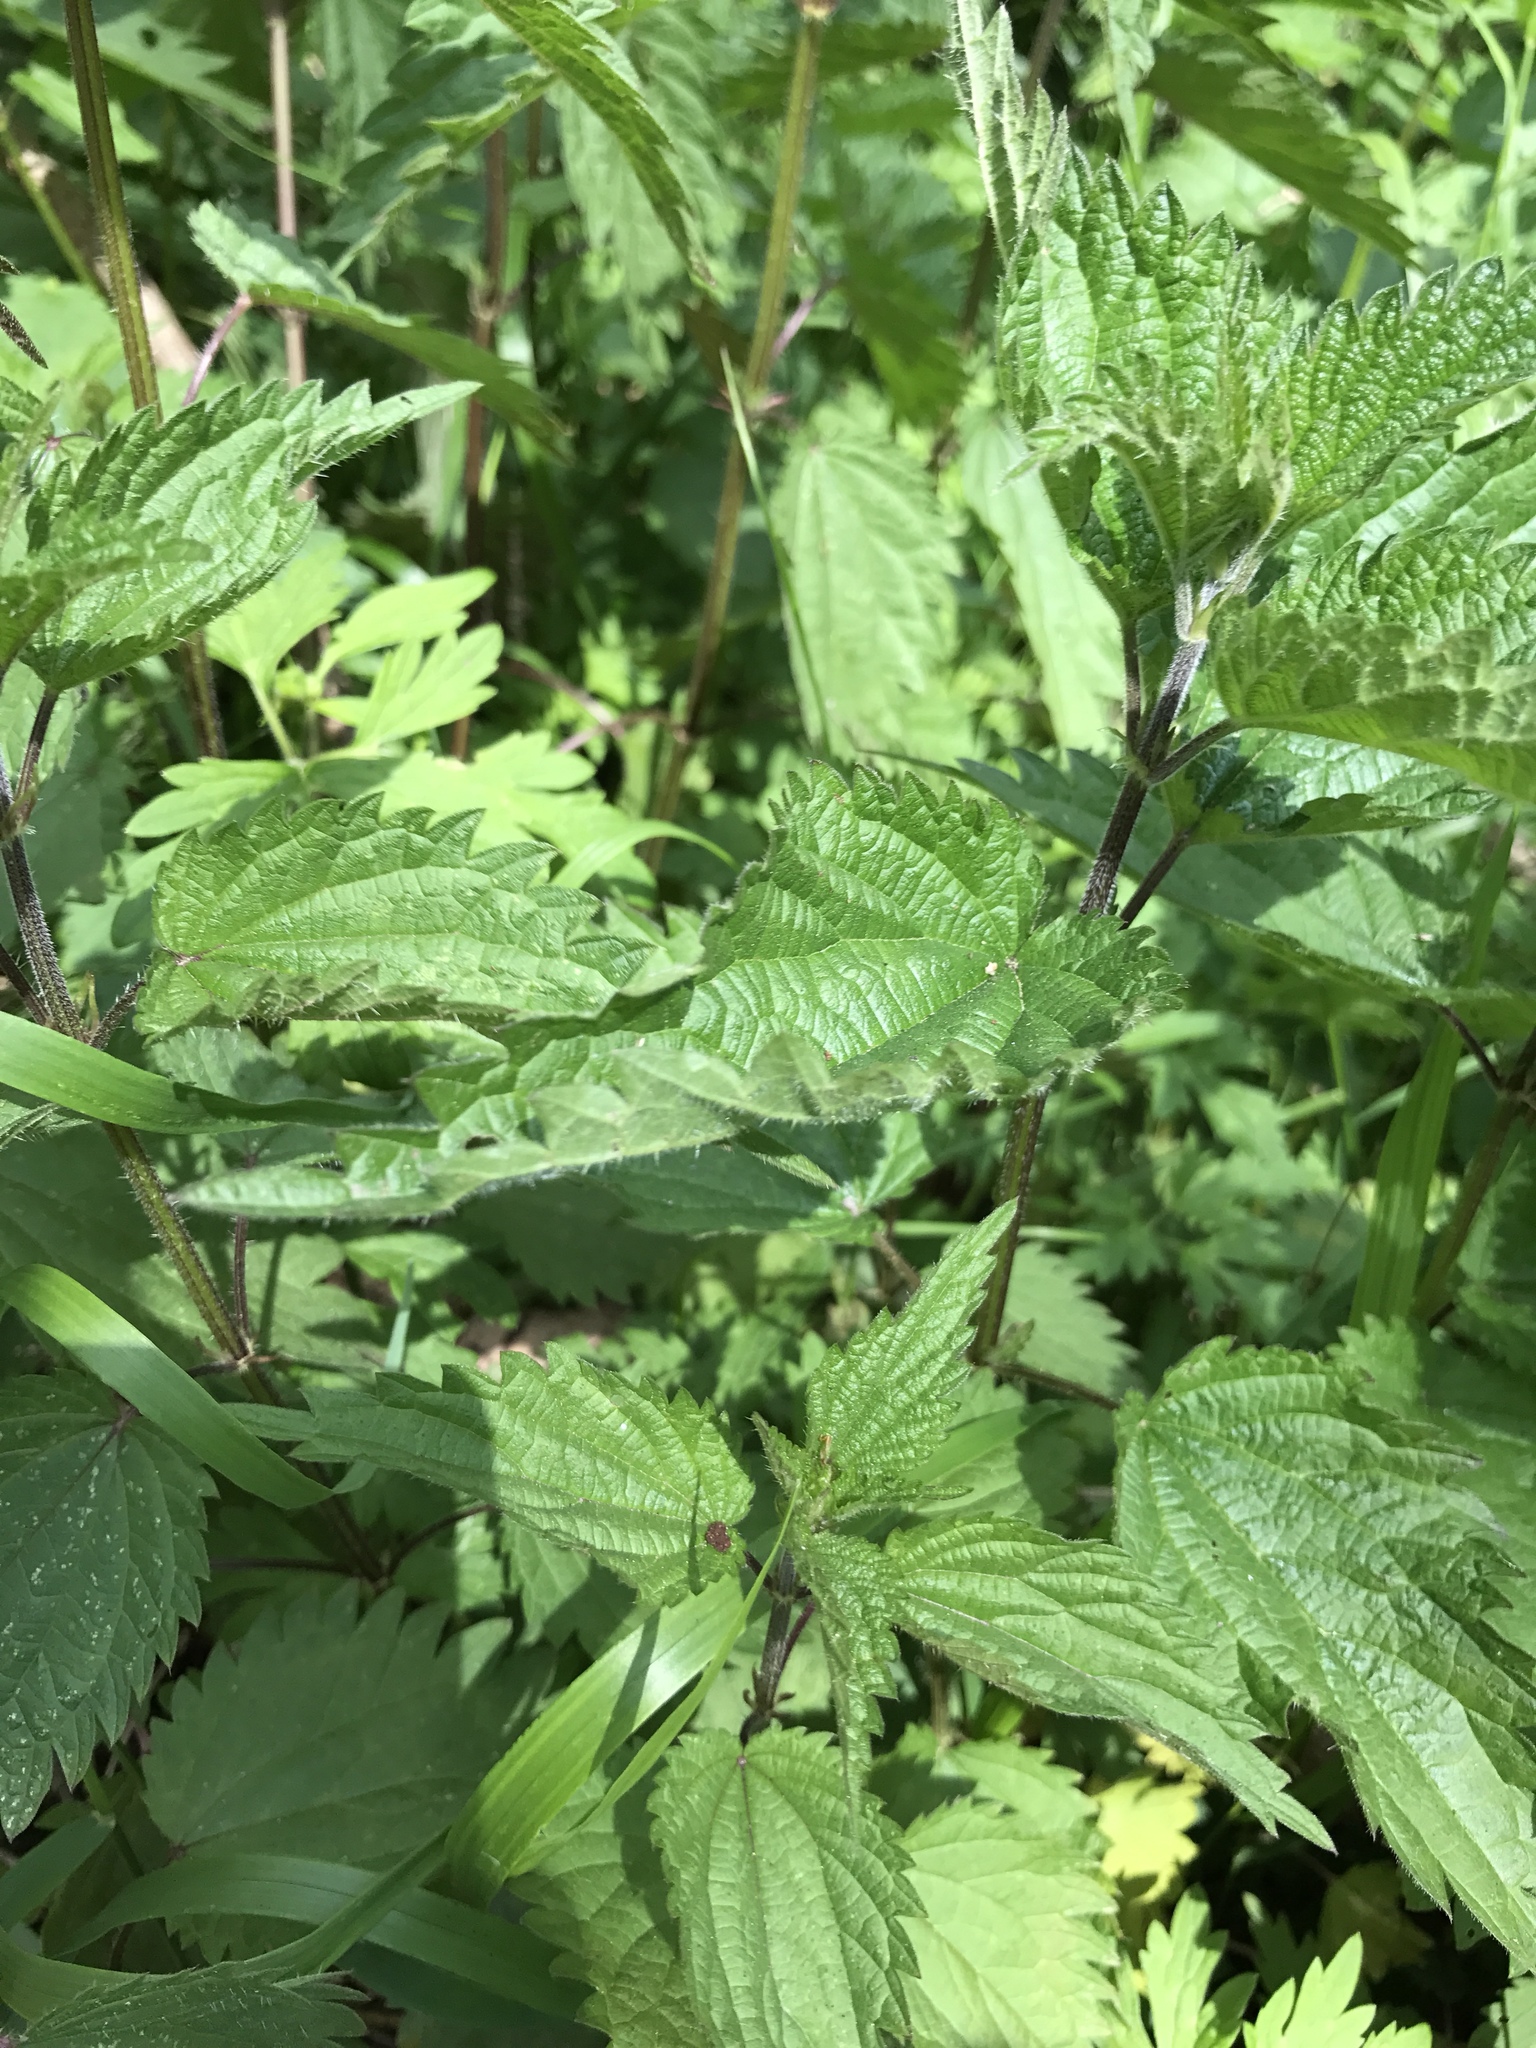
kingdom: Plantae
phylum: Tracheophyta
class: Magnoliopsida
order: Rosales
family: Urticaceae
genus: Urtica
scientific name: Urtica dioica
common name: Common nettle
